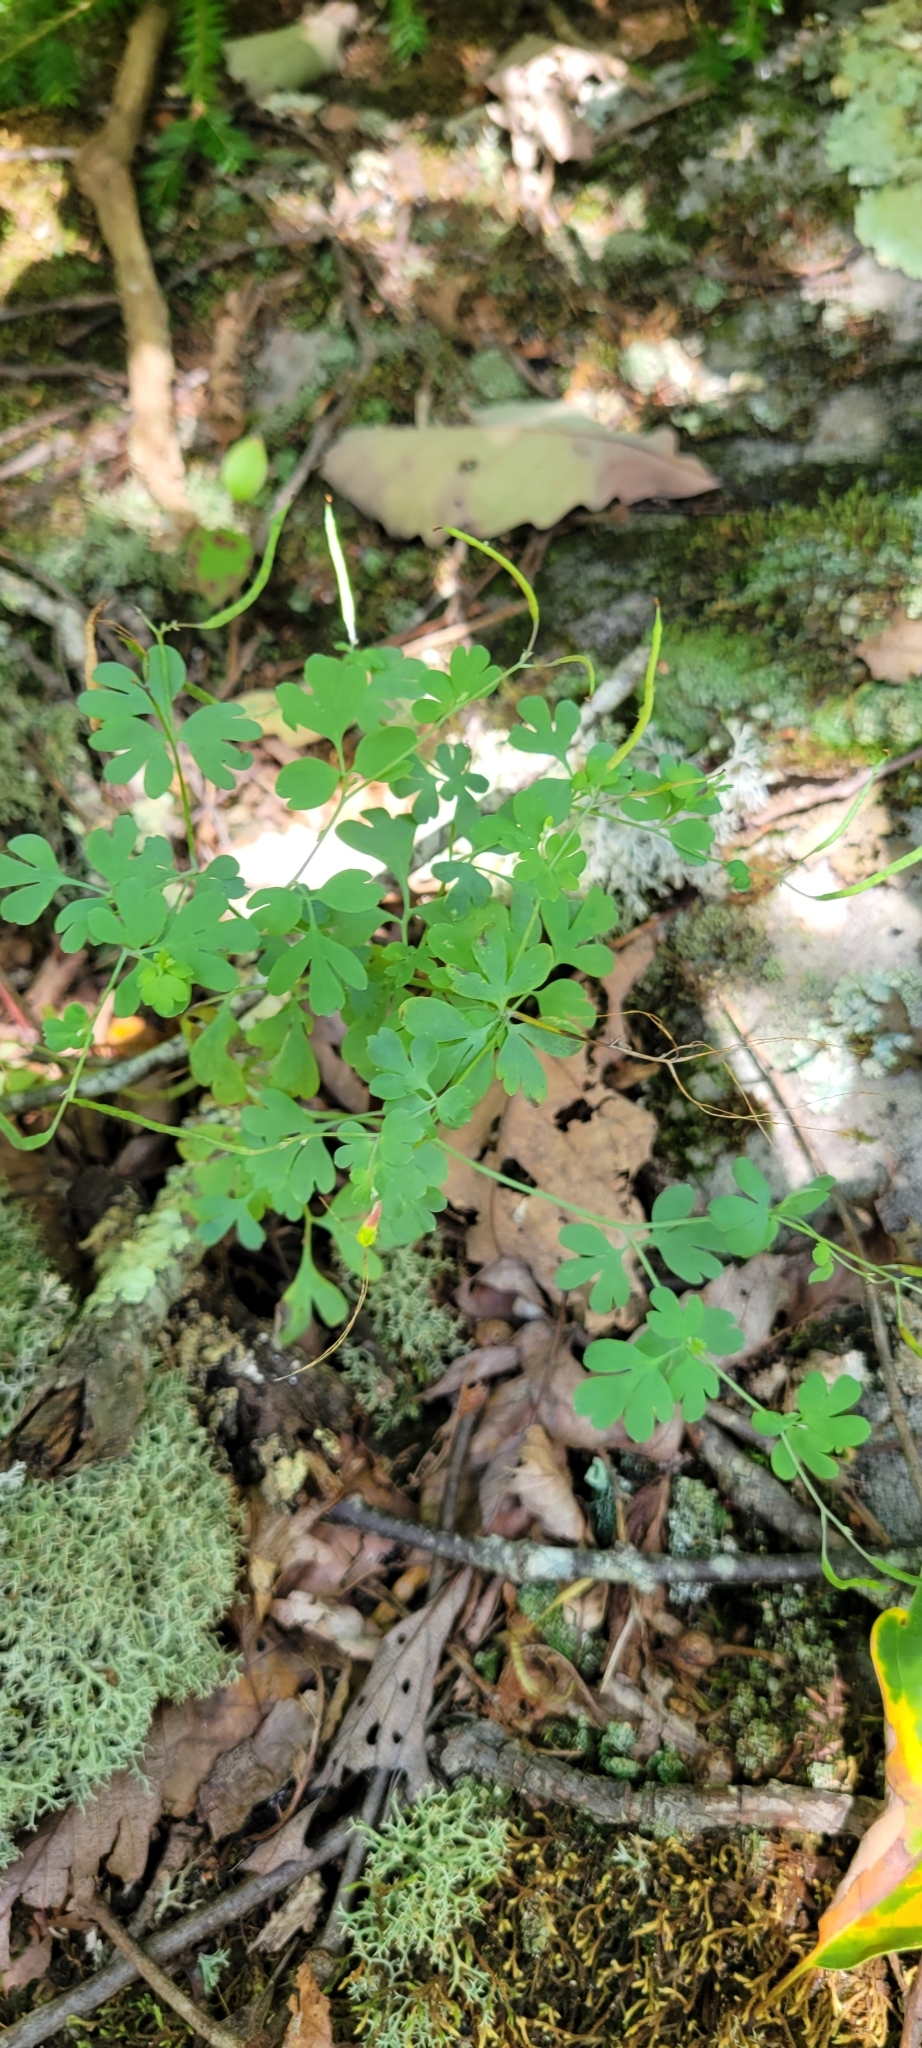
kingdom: Plantae
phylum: Tracheophyta
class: Magnoliopsida
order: Ranunculales
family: Papaveraceae
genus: Capnoides
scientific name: Capnoides sempervirens
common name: Rock harlequin
